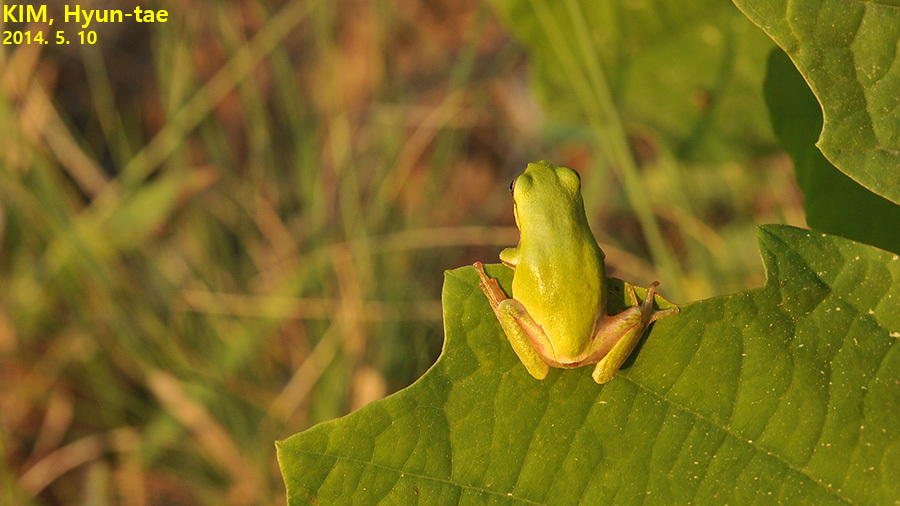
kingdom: Animalia
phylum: Chordata
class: Amphibia
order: Anura
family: Hylidae
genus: Dryophytes
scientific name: Dryophytes immaculatus
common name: North china treefrog
